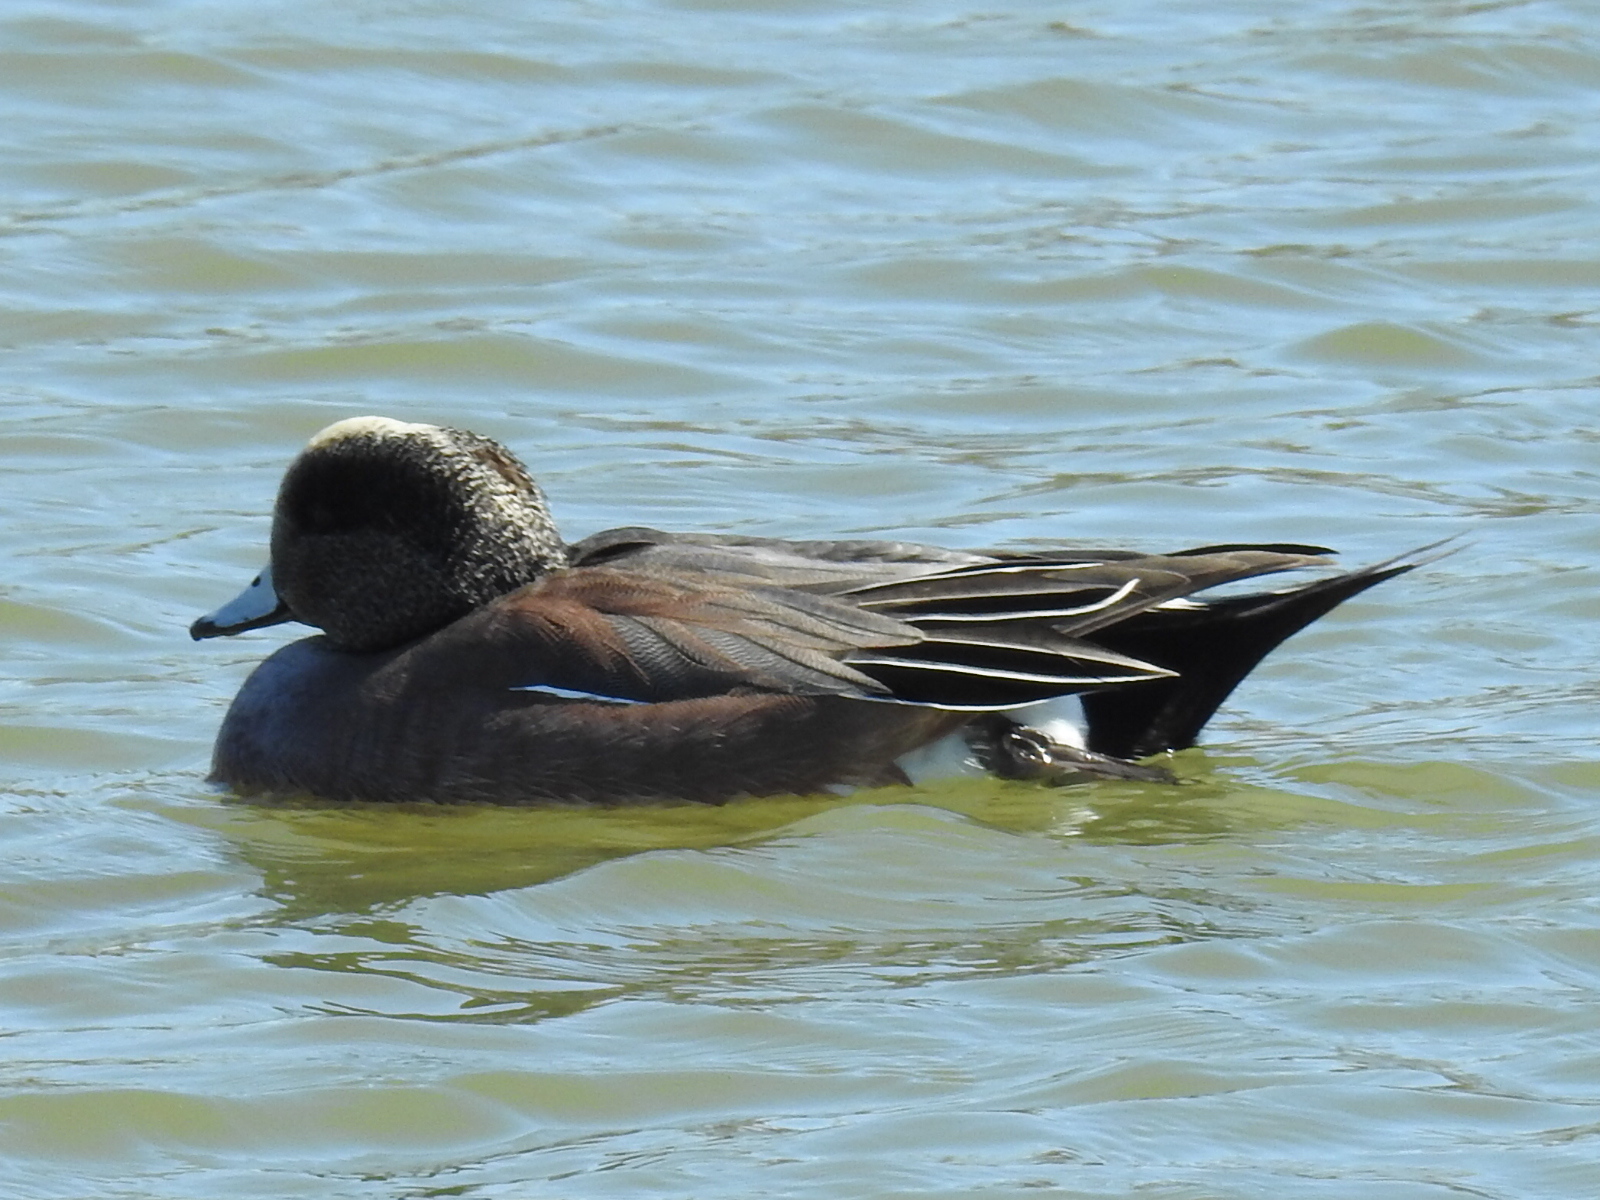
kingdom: Animalia
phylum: Chordata
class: Aves
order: Anseriformes
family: Anatidae
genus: Mareca
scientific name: Mareca americana
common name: American wigeon
